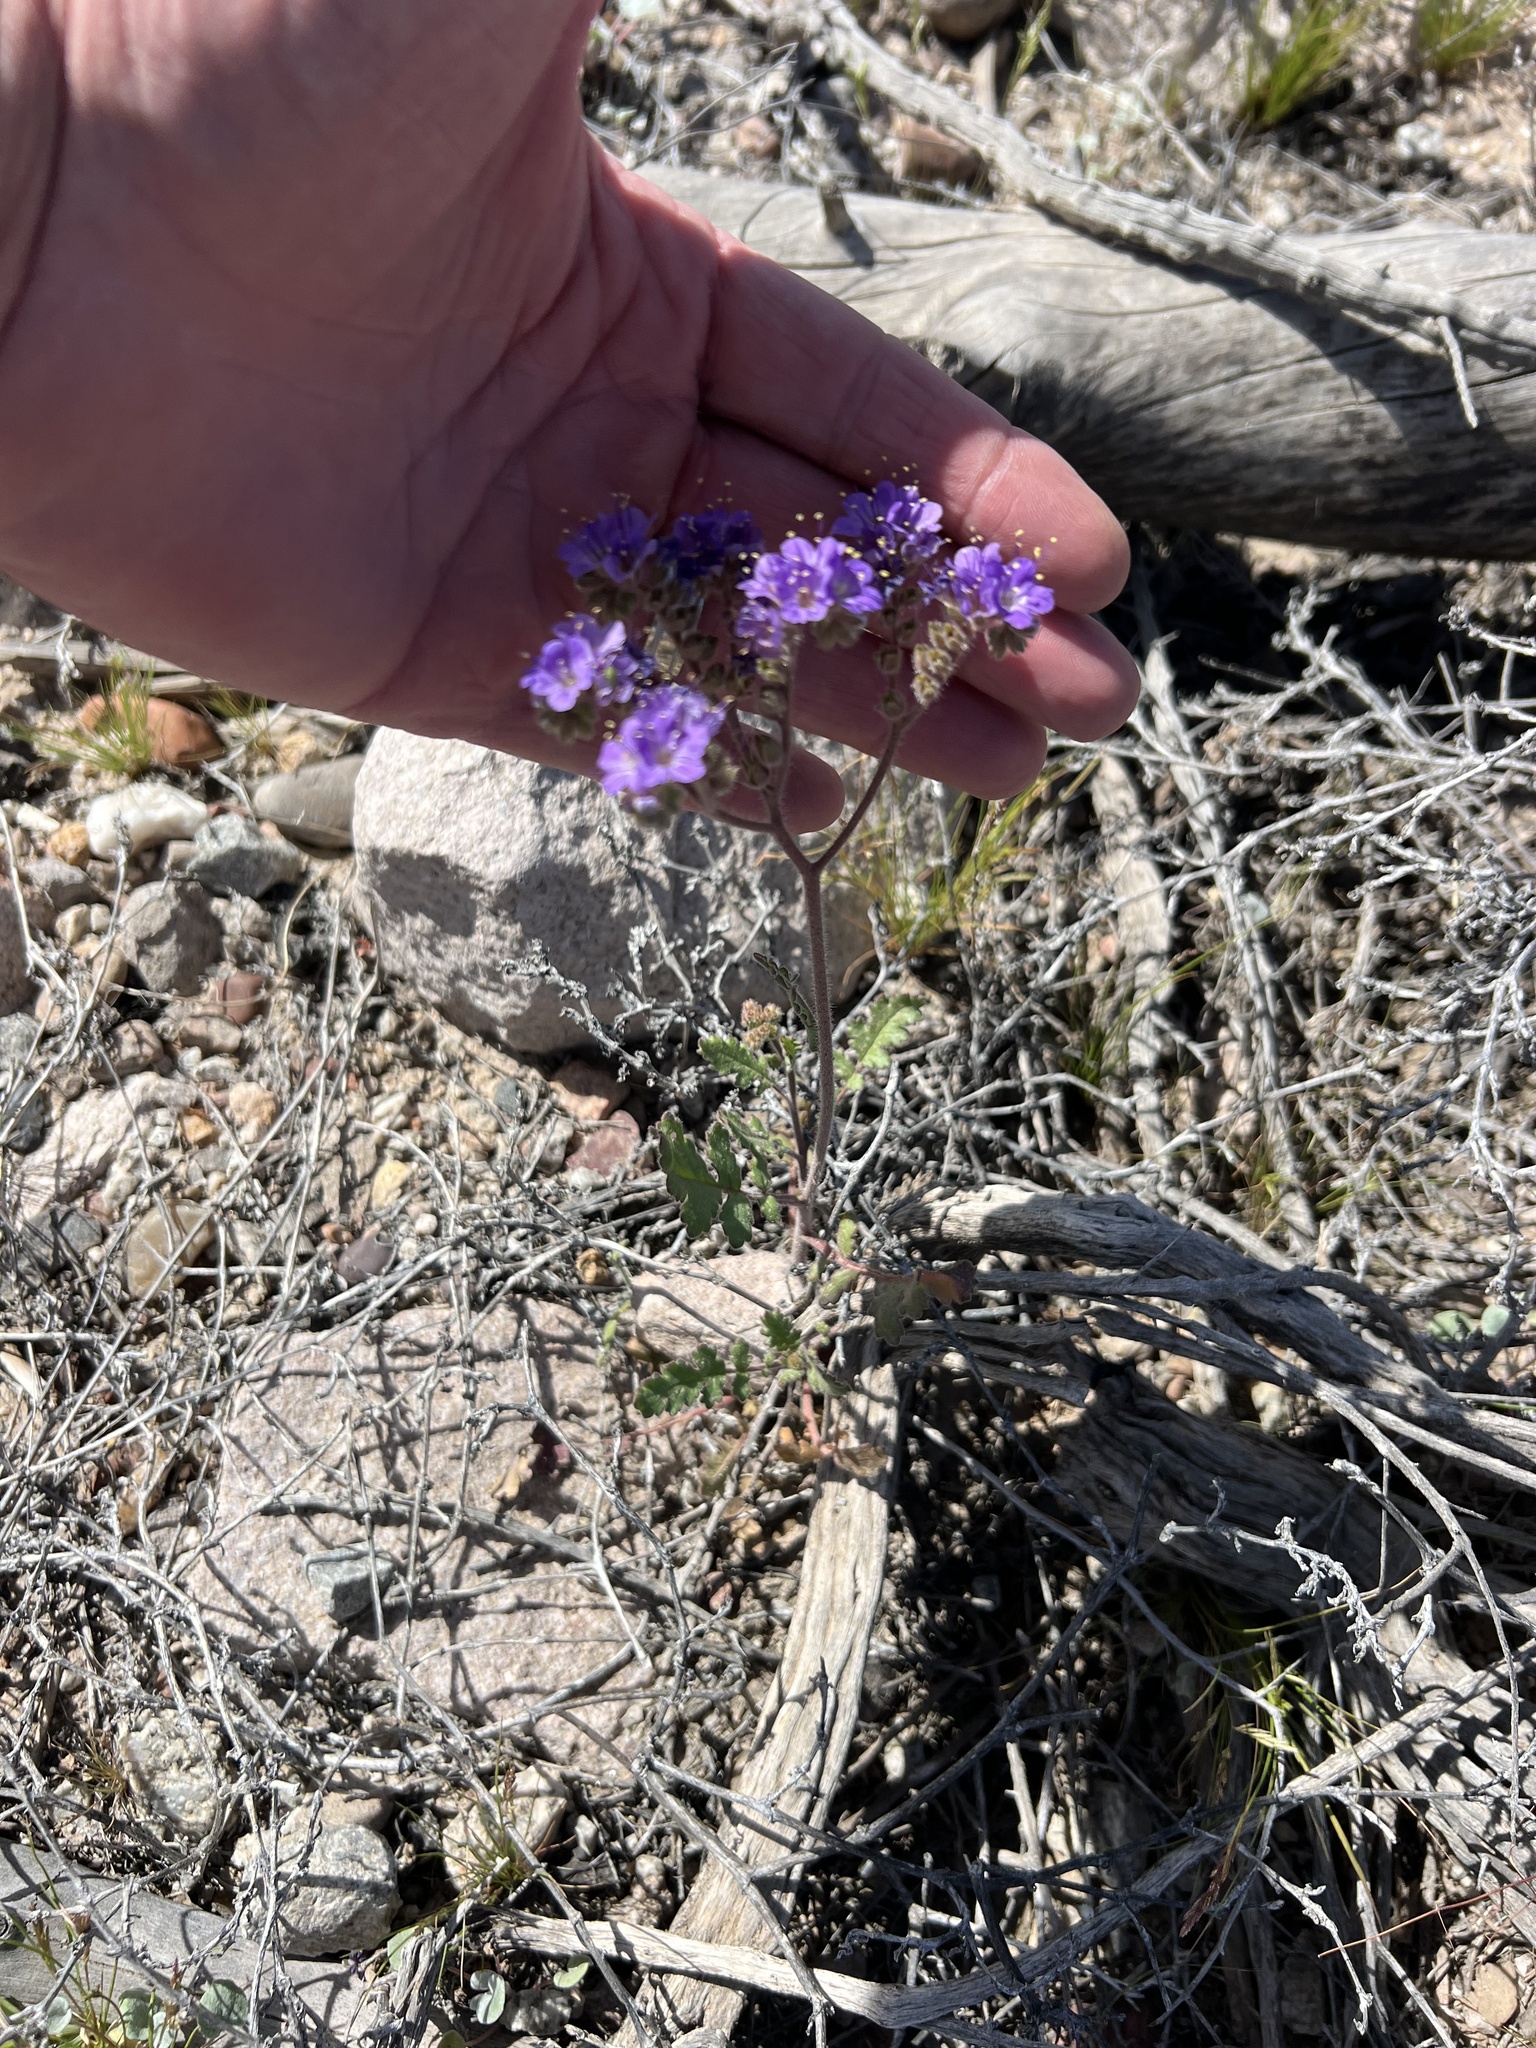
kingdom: Plantae
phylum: Tracheophyta
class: Magnoliopsida
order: Boraginales
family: Hydrophyllaceae
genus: Phacelia
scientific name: Phacelia crenulata
